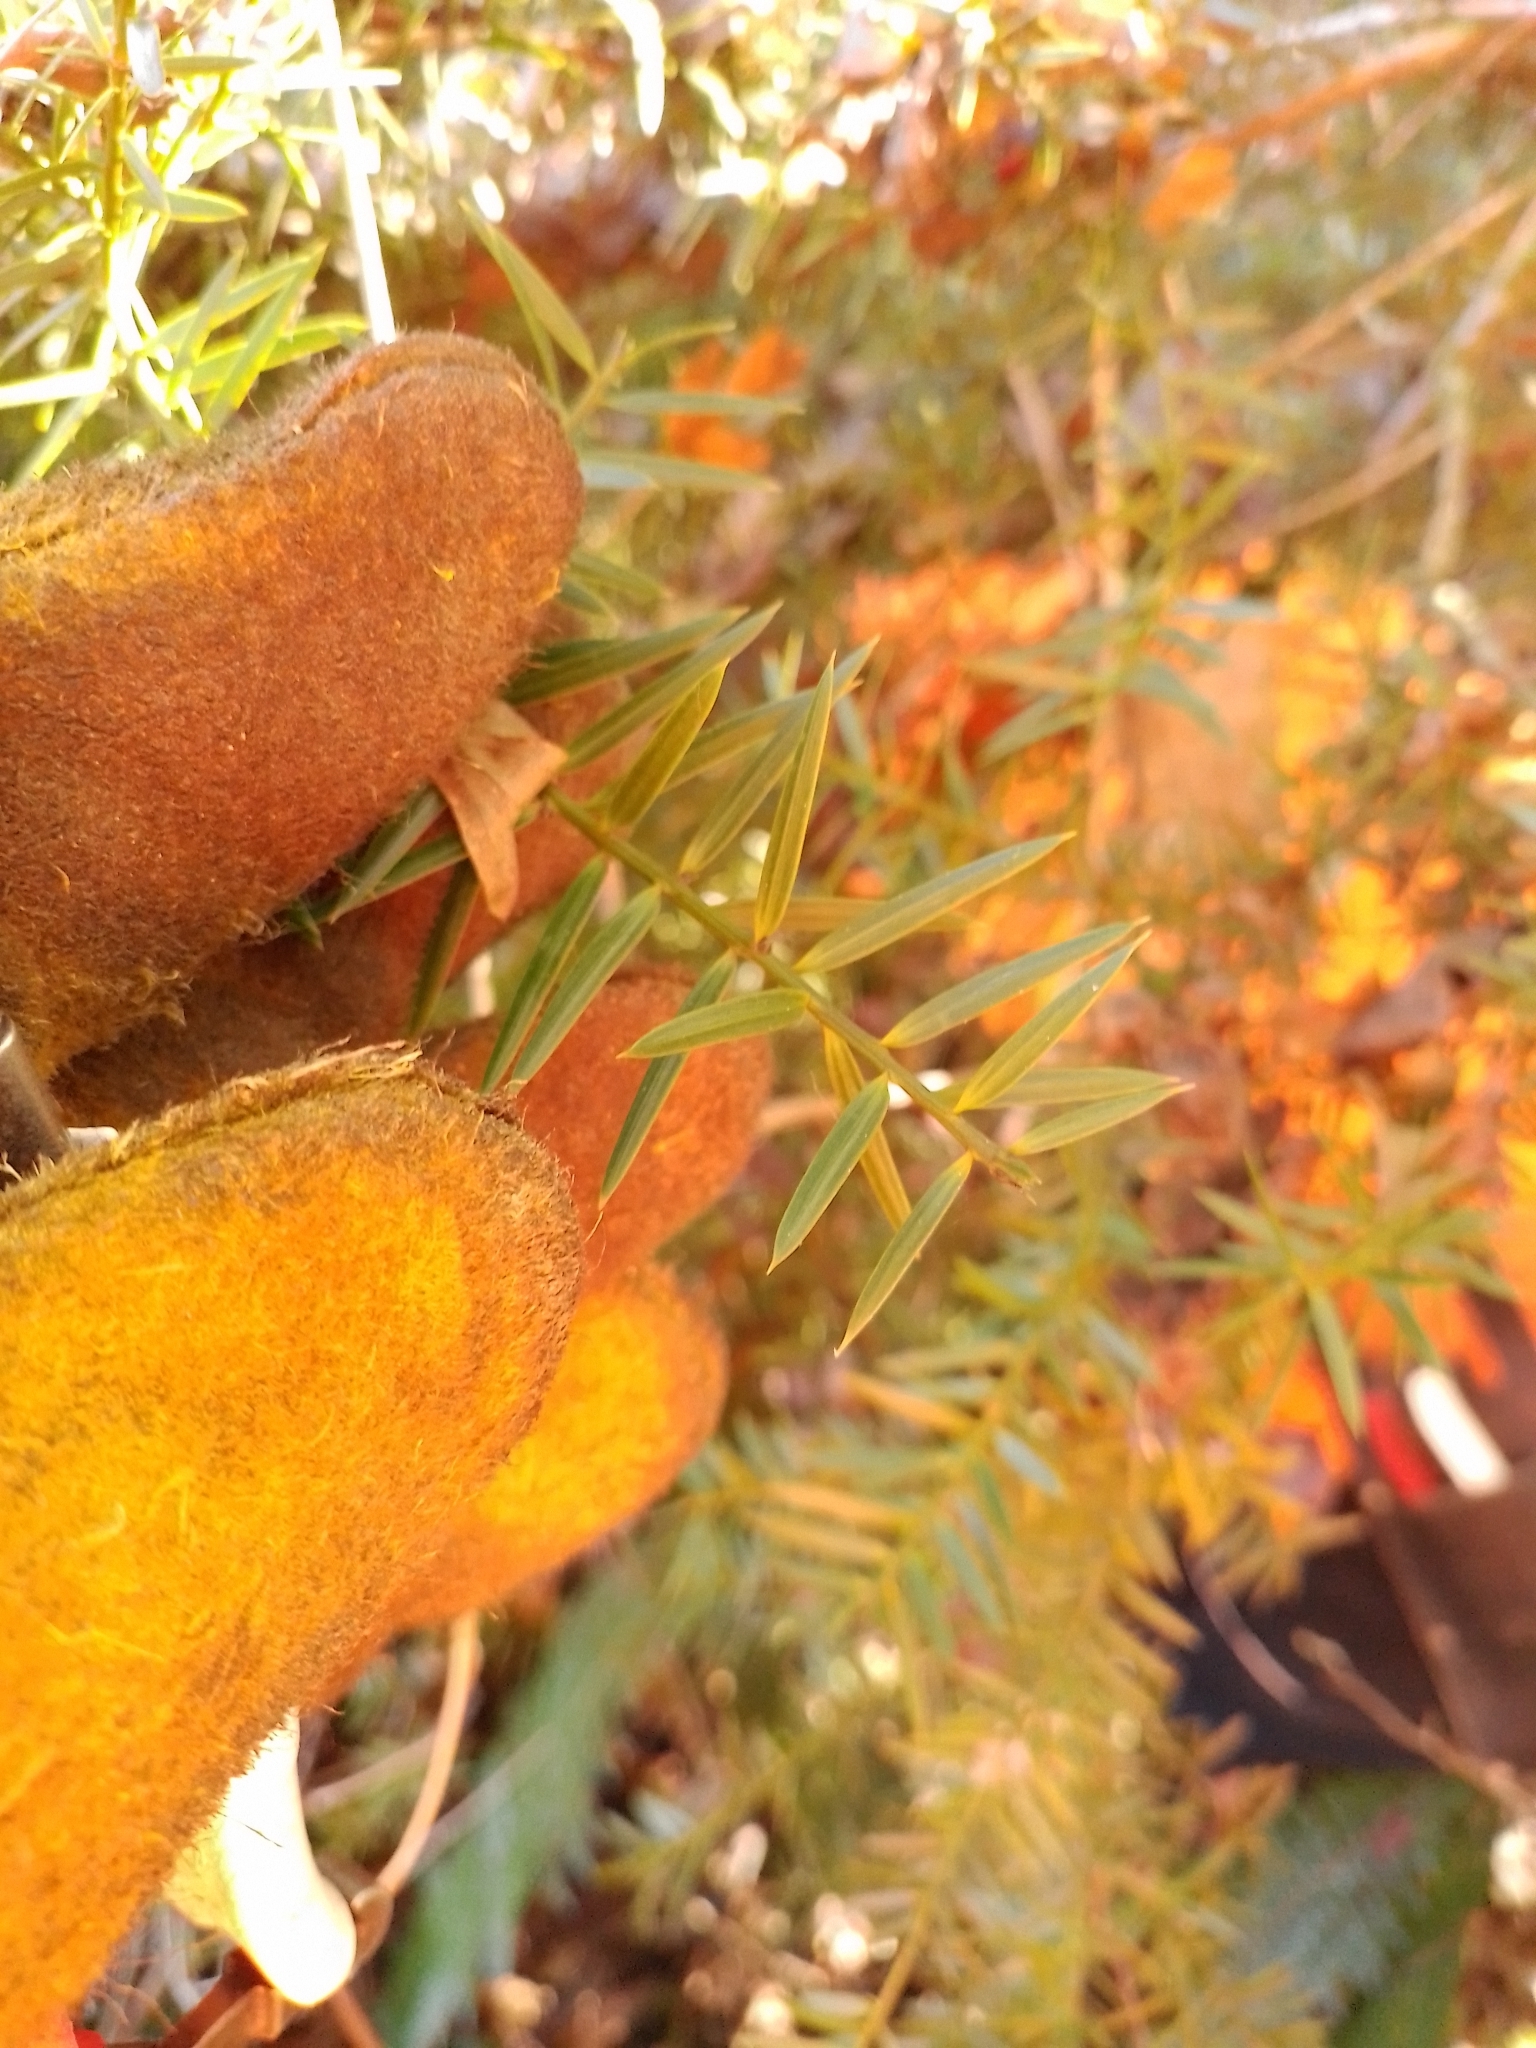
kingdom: Plantae
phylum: Tracheophyta
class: Pinopsida
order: Pinales
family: Podocarpaceae
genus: Podocarpus
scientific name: Podocarpus totara
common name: Totara
